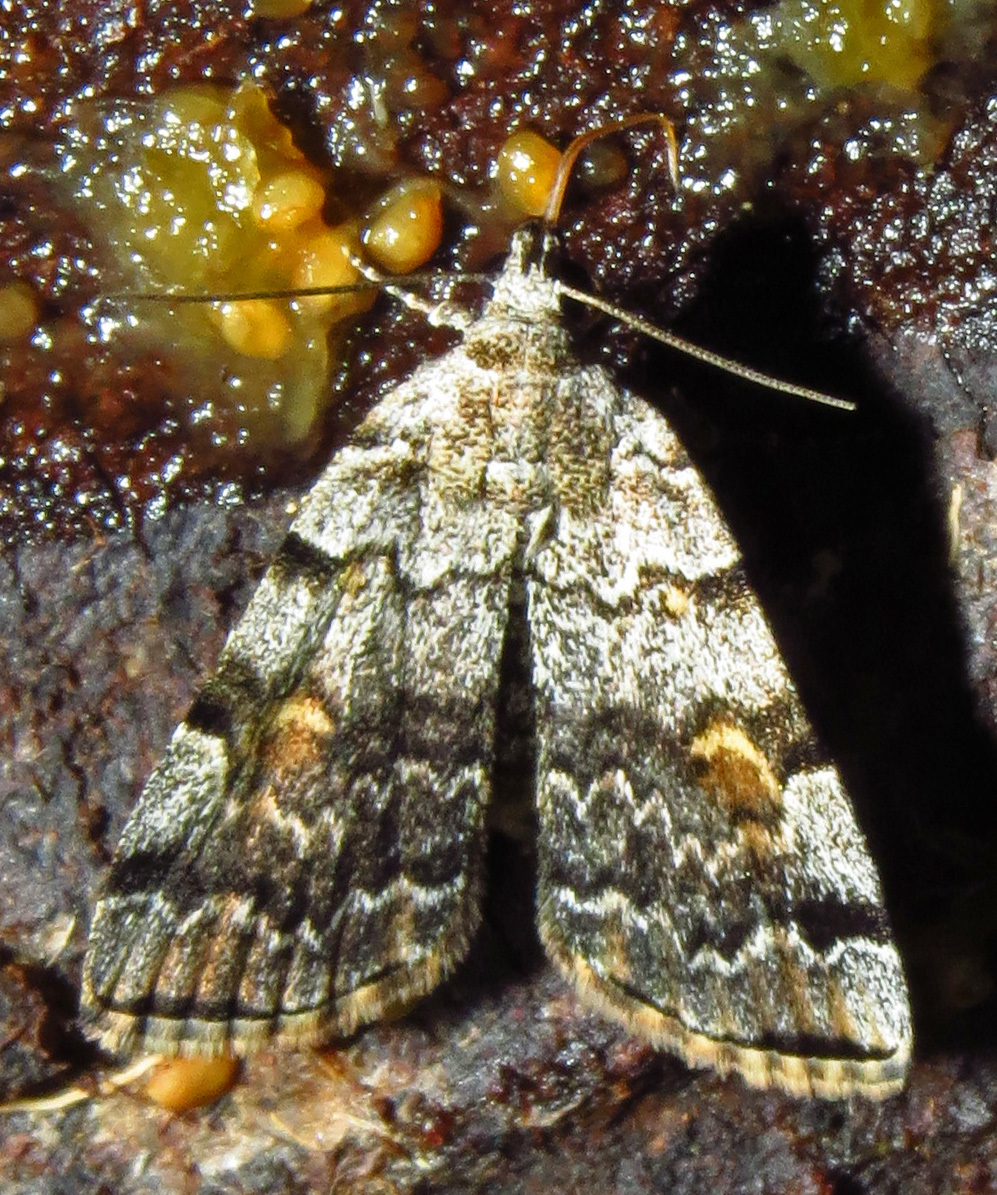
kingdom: Animalia
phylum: Arthropoda
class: Insecta
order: Lepidoptera
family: Erebidae
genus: Idia
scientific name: Idia americalis
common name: American idia moth
